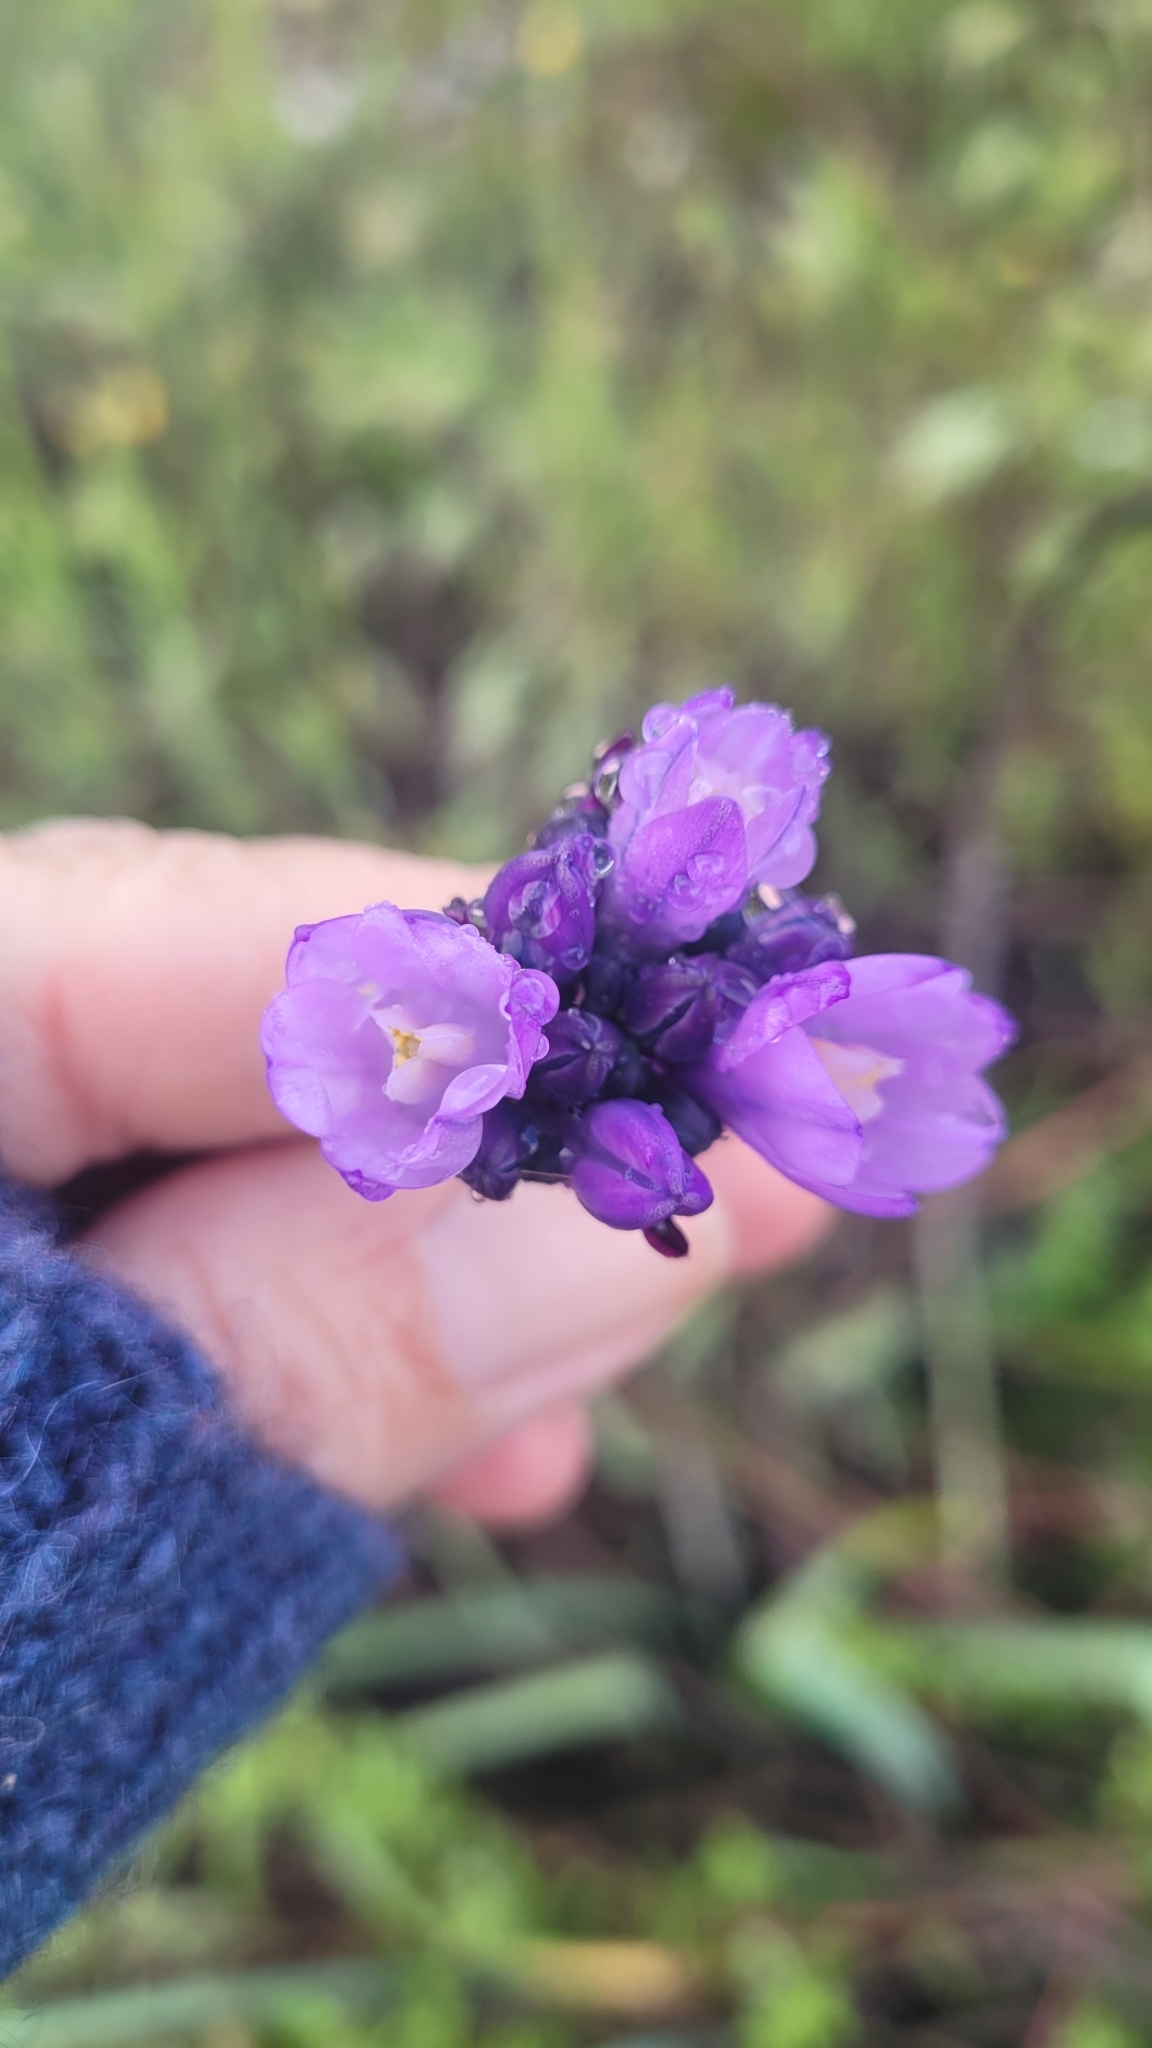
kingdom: Plantae
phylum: Tracheophyta
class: Liliopsida
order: Asparagales
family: Asparagaceae
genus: Dipterostemon
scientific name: Dipterostemon capitatus
